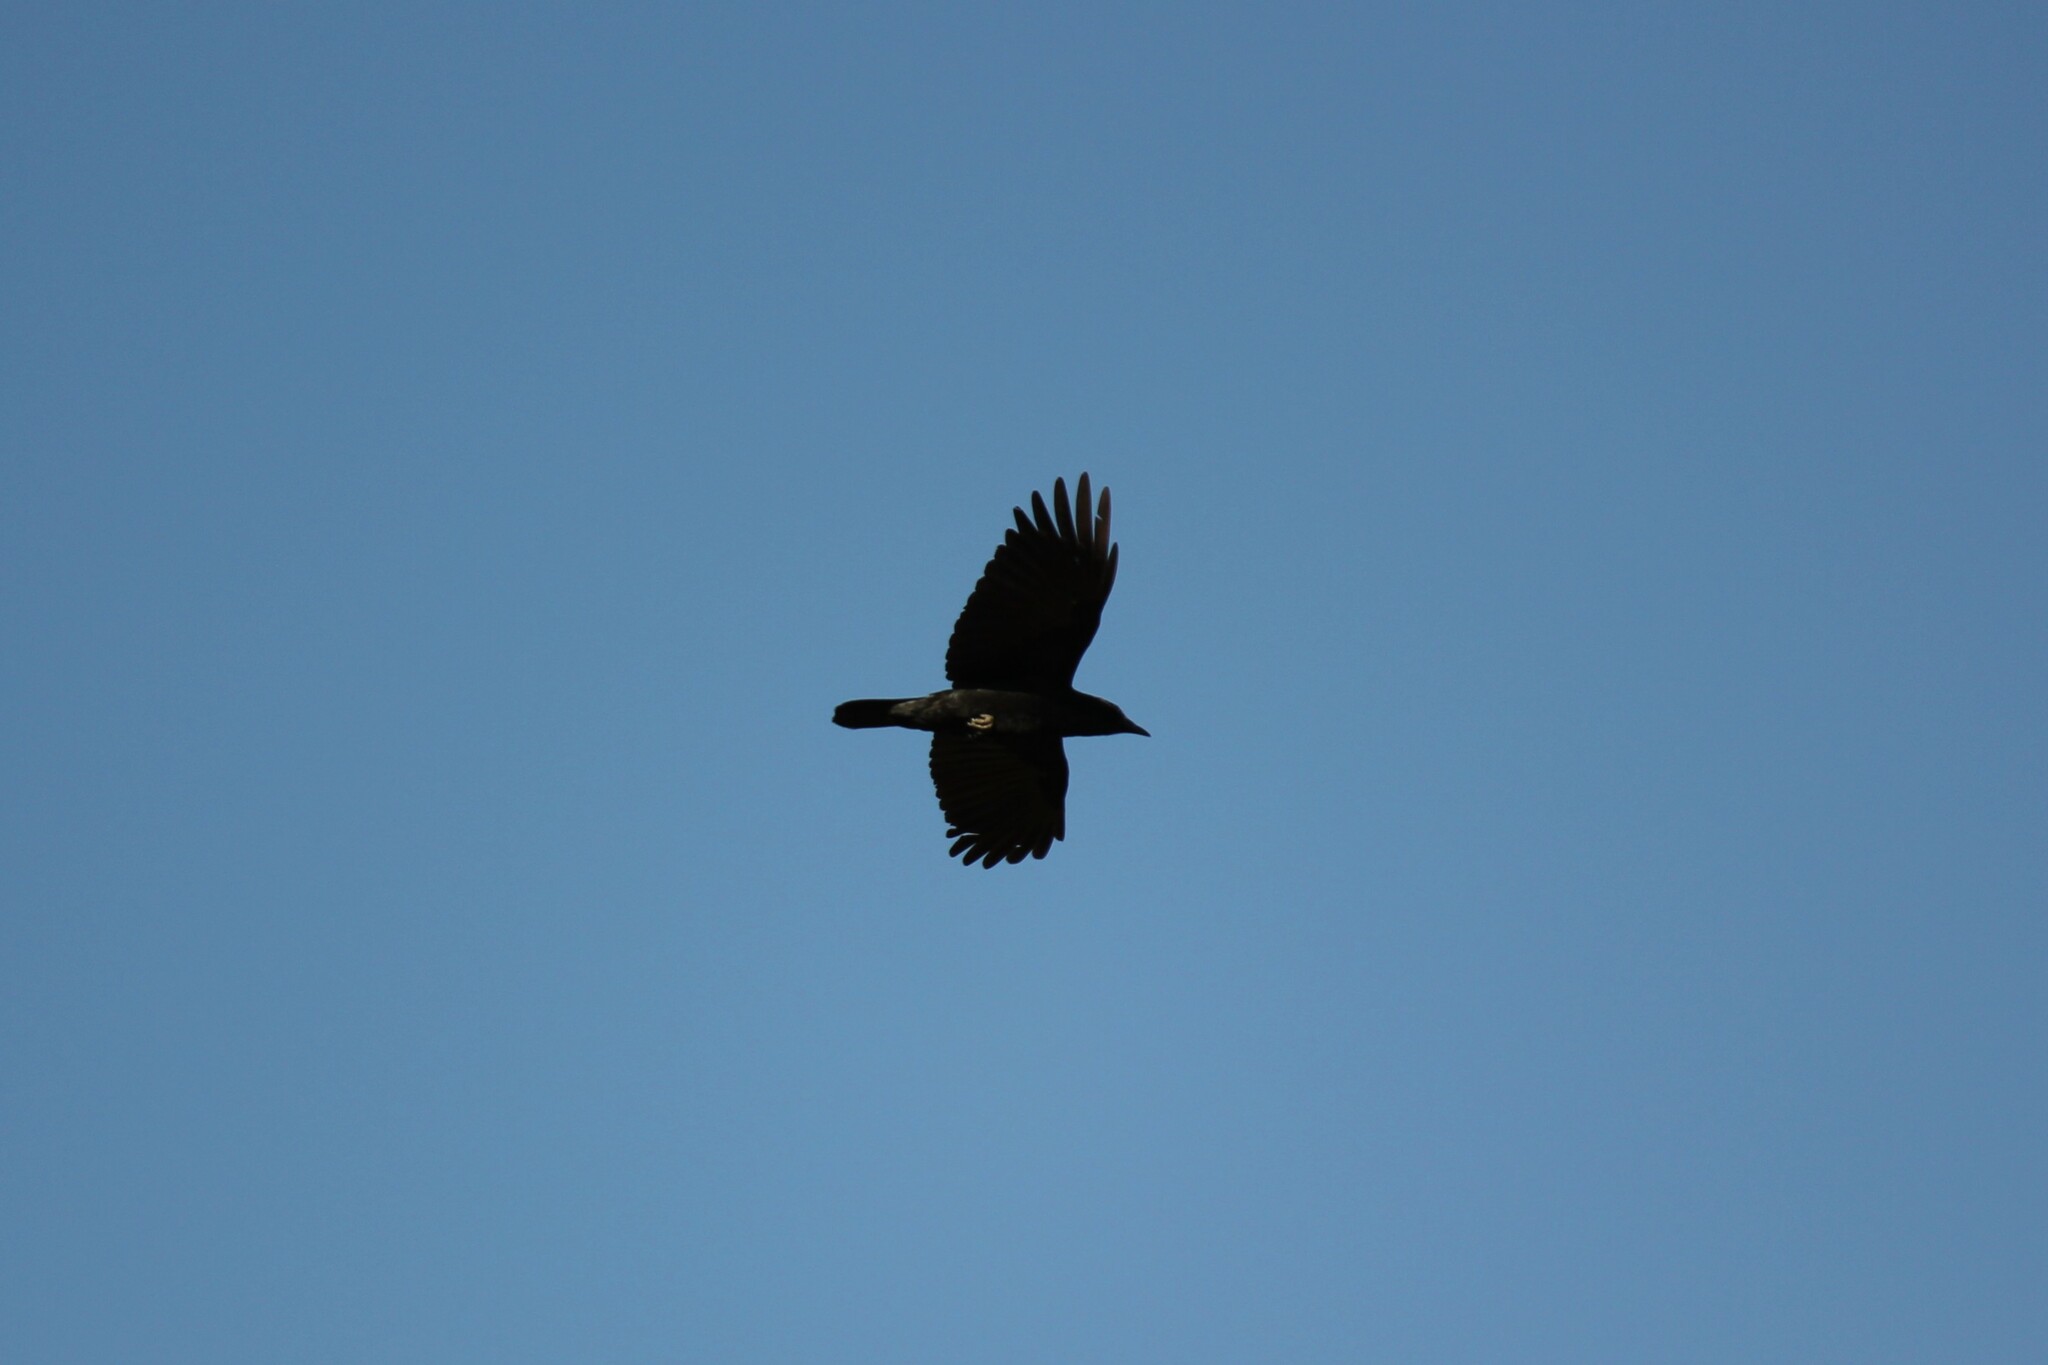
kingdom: Animalia
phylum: Chordata
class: Aves
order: Passeriformes
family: Corvidae
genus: Corvus
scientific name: Corvus brachyrhynchos
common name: American crow
